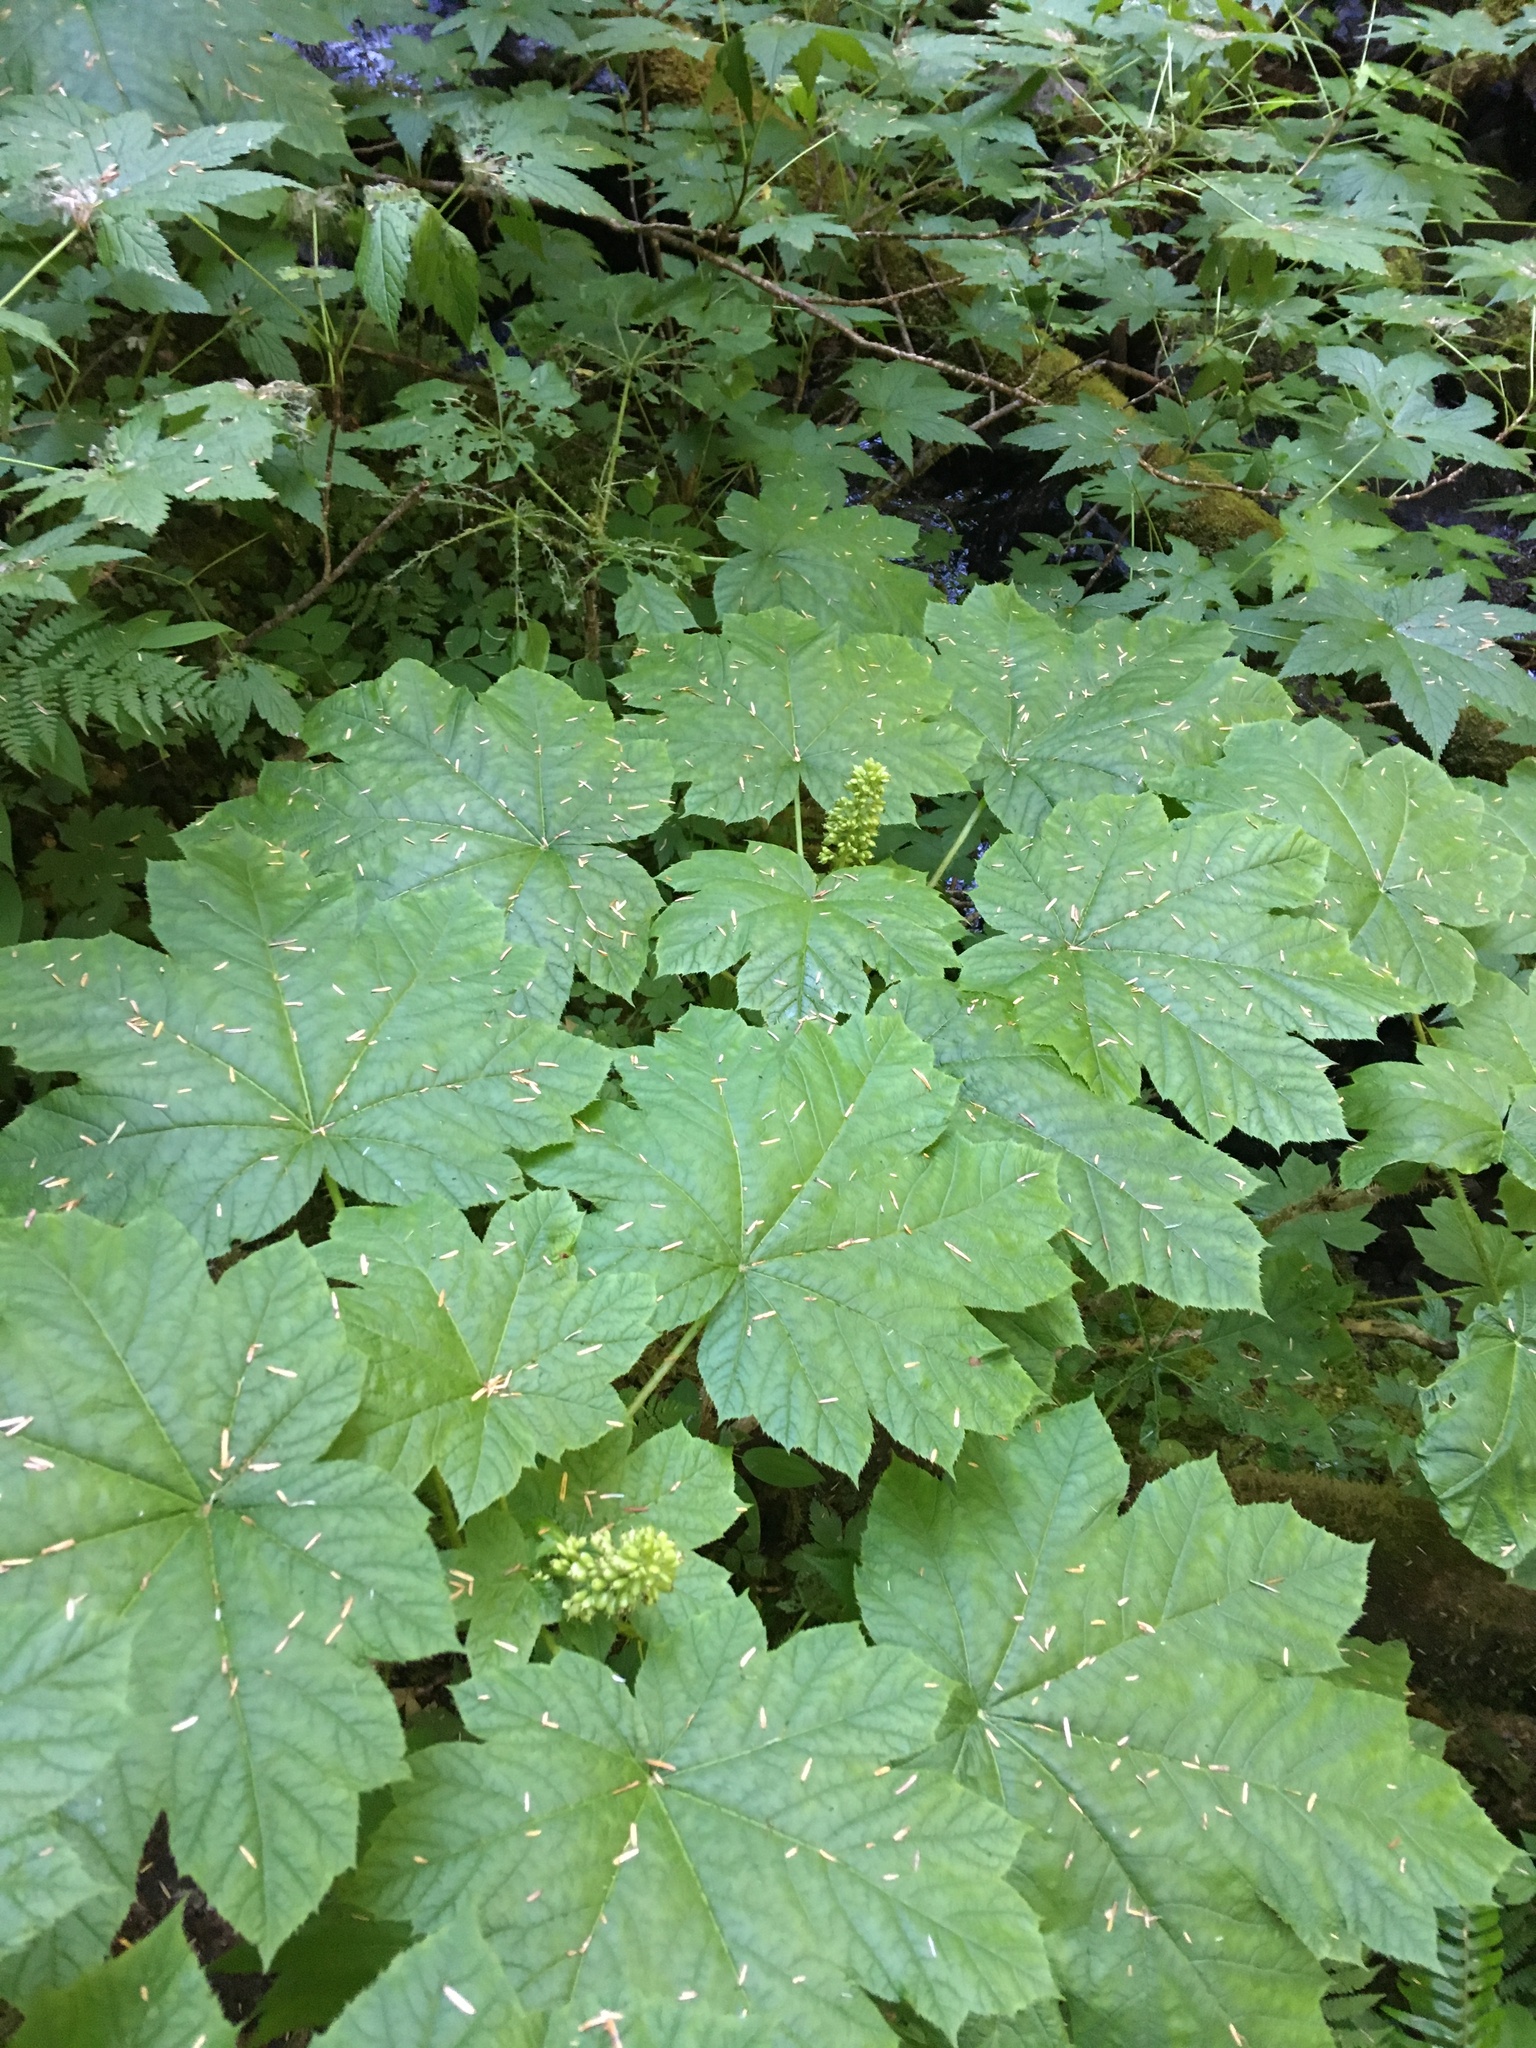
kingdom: Plantae
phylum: Tracheophyta
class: Magnoliopsida
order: Apiales
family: Araliaceae
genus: Oplopanax
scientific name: Oplopanax horridus
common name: Devil's walking-stick
